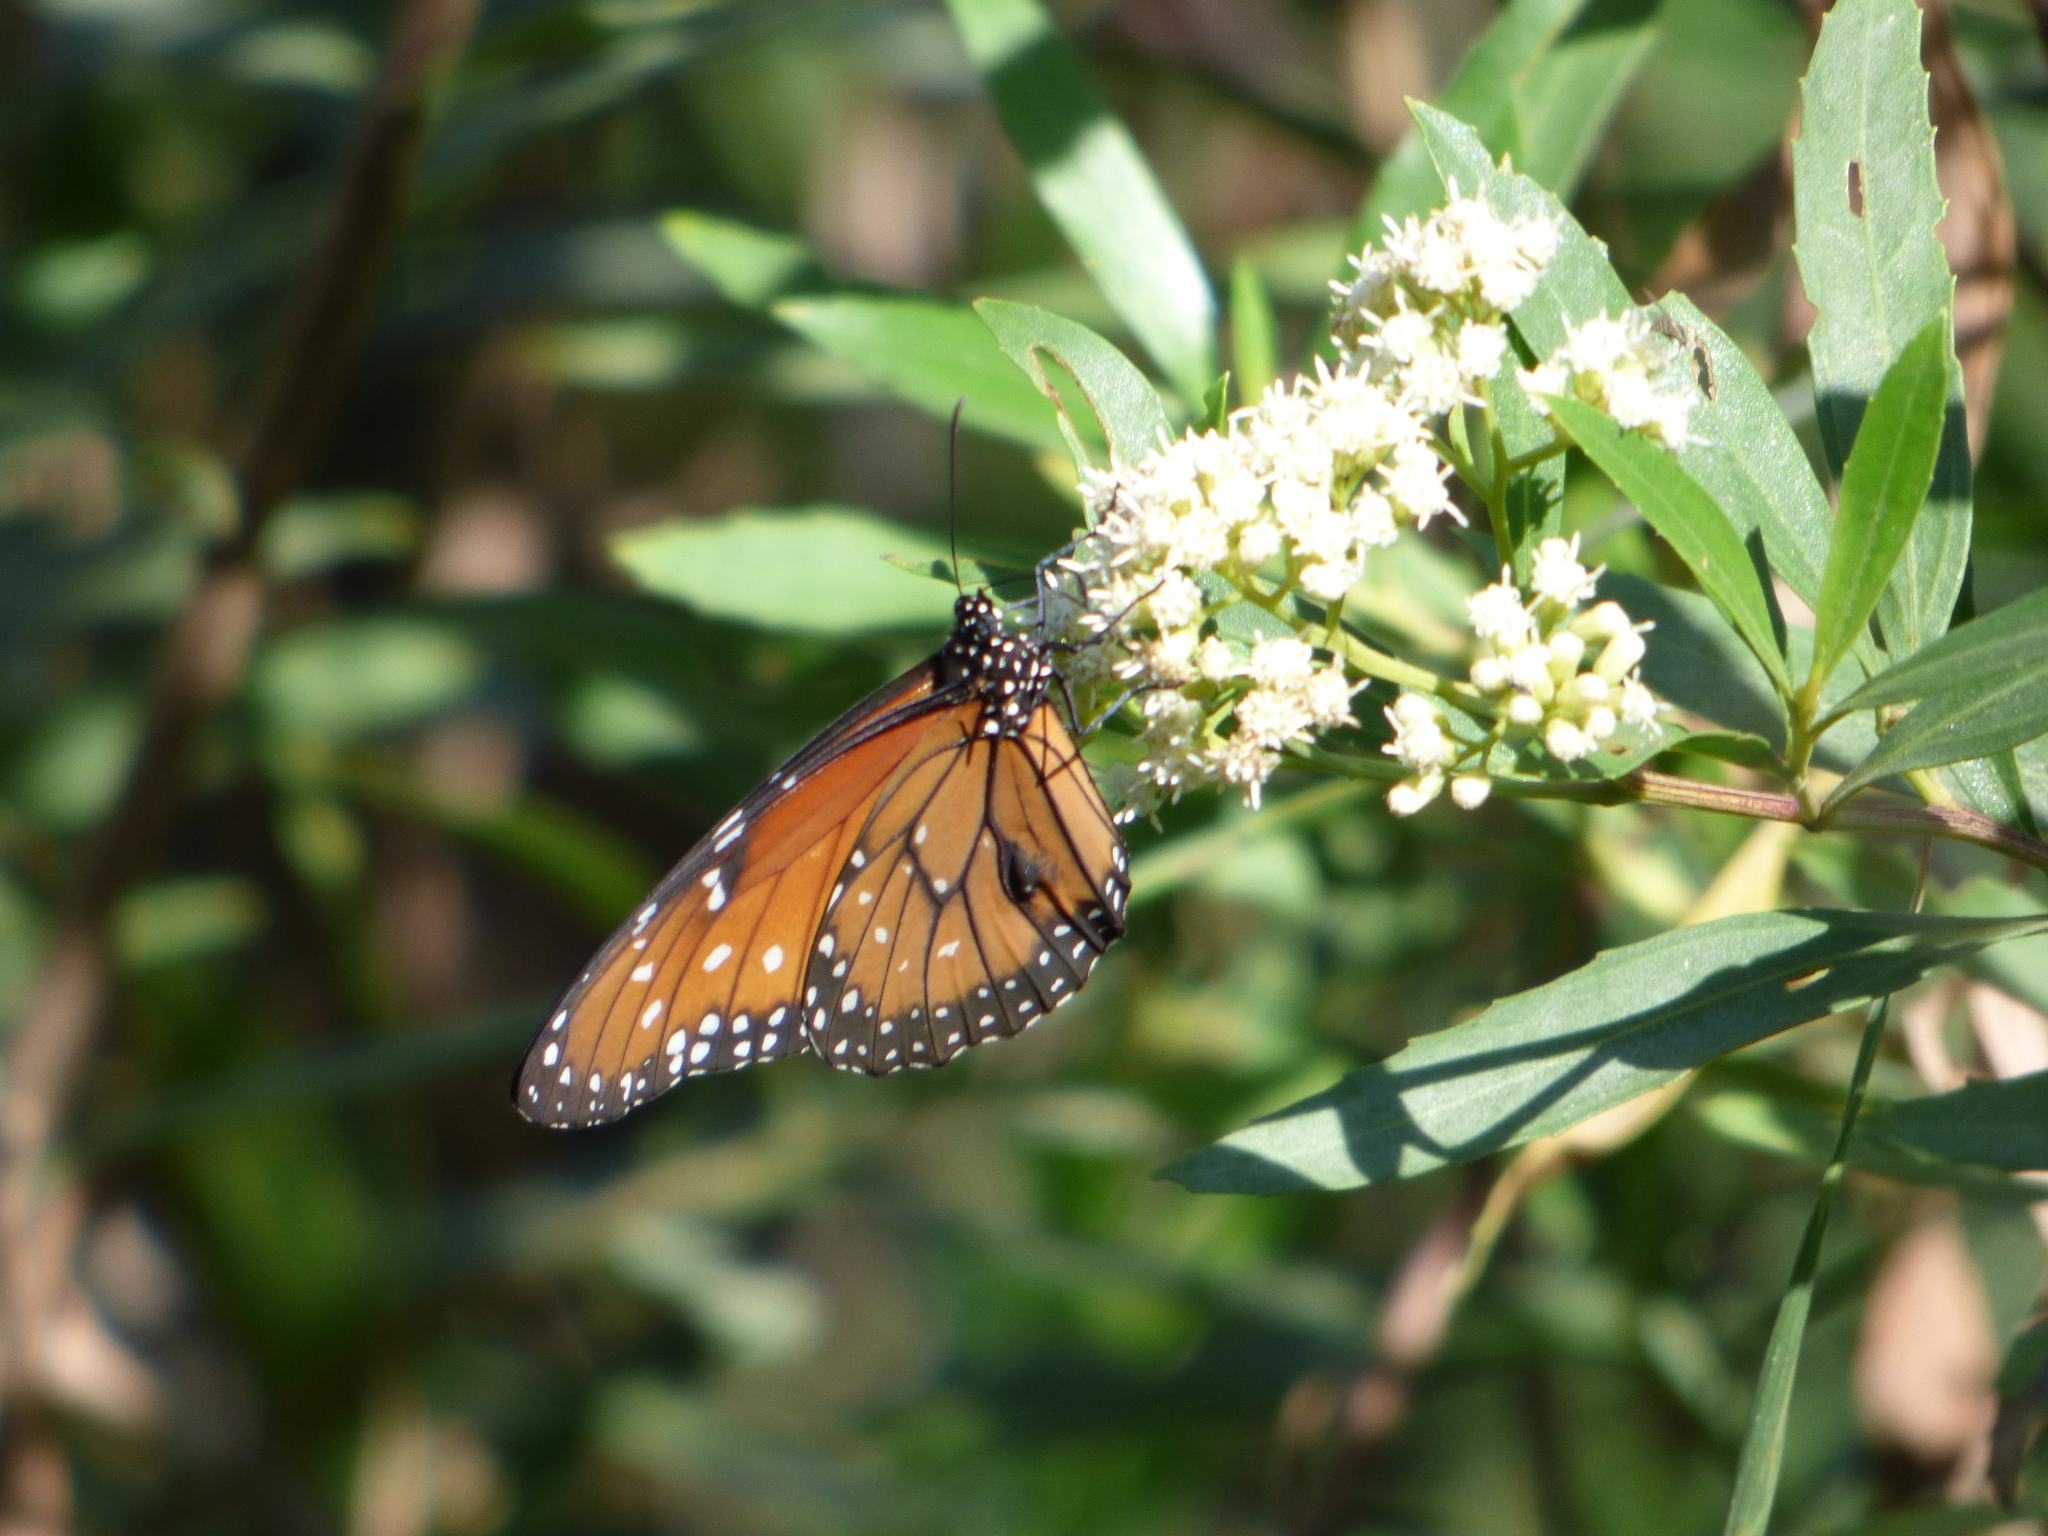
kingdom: Animalia
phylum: Arthropoda
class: Insecta
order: Lepidoptera
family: Nymphalidae
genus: Danaus
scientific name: Danaus eresimus
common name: Soldier
